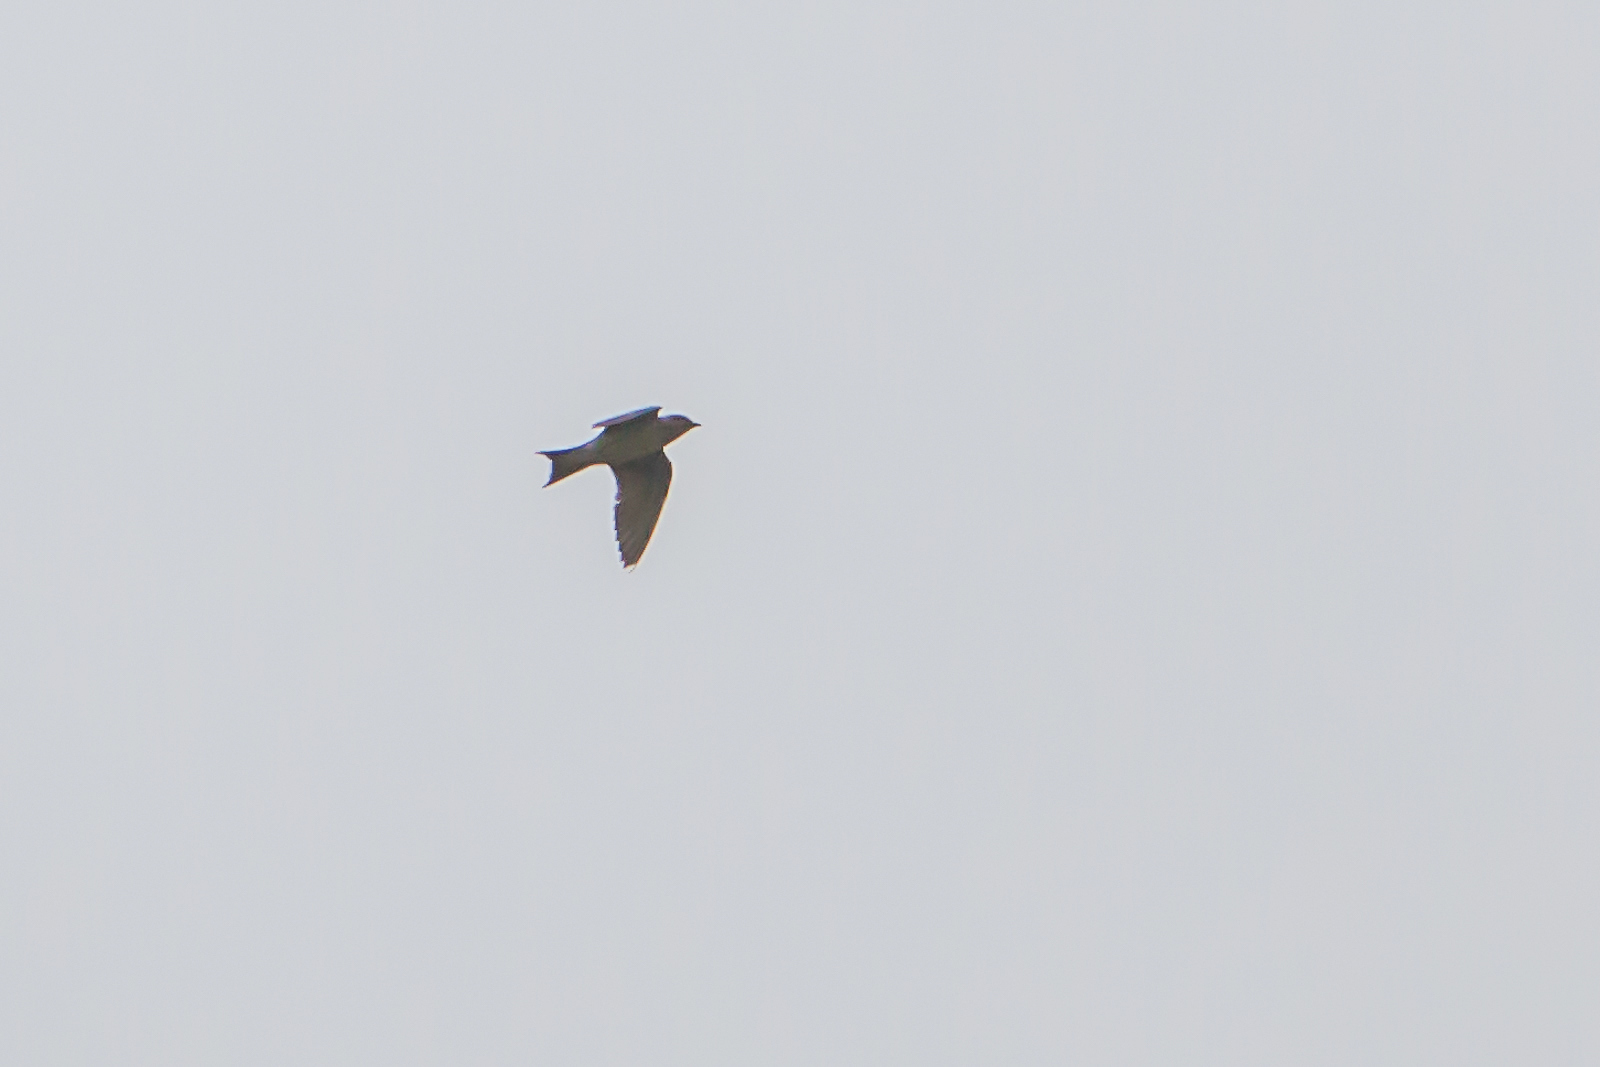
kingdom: Animalia
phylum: Chordata
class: Aves
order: Passeriformes
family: Hirundinidae
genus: Hirundo
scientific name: Hirundo rustica
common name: Barn swallow
